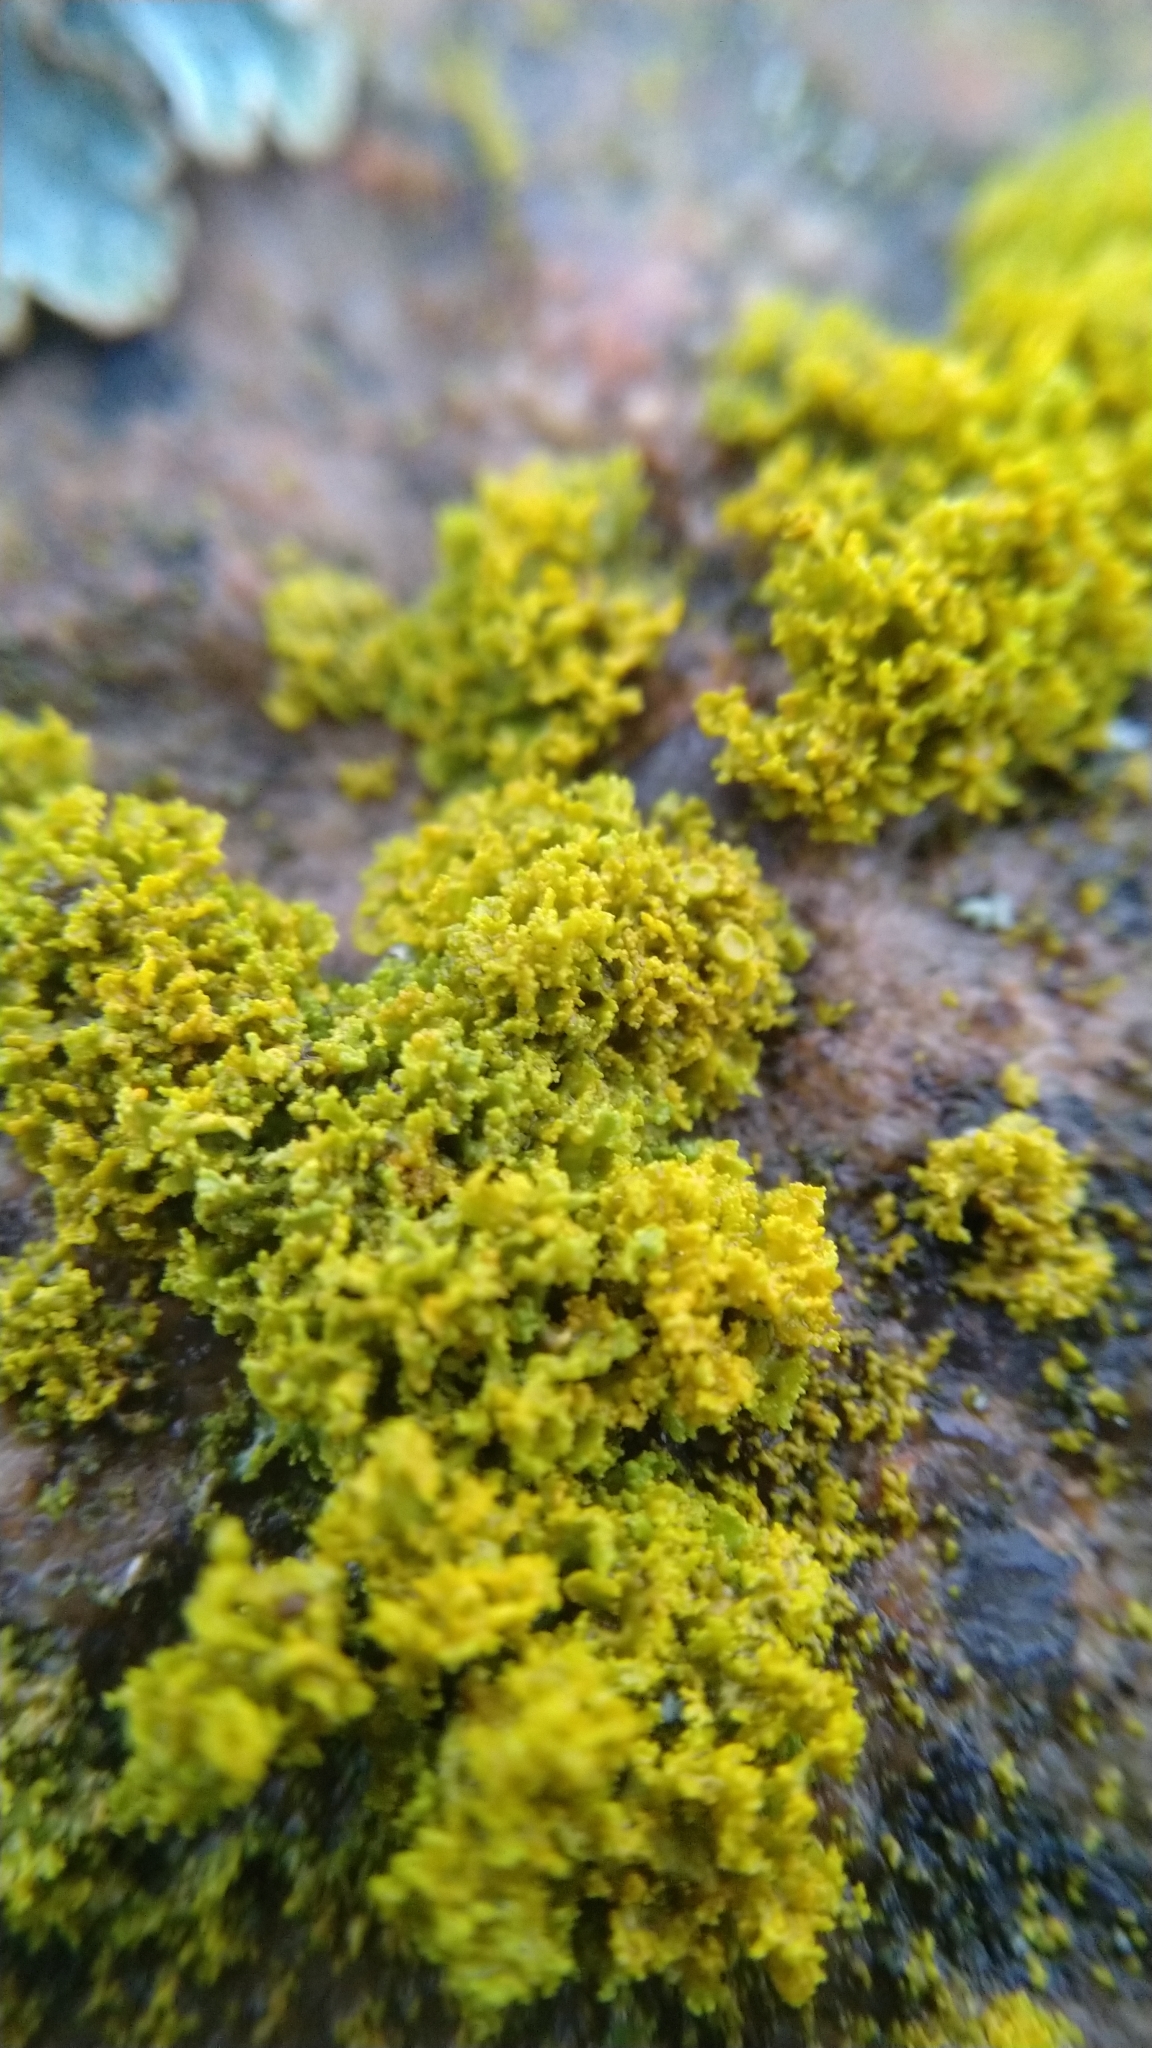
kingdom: Fungi
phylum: Ascomycota
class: Lecanoromycetes
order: Teloschistales
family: Teloschistaceae
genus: Polycauliona
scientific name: Polycauliona candelaria
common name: Shrubby sunburst lichen
